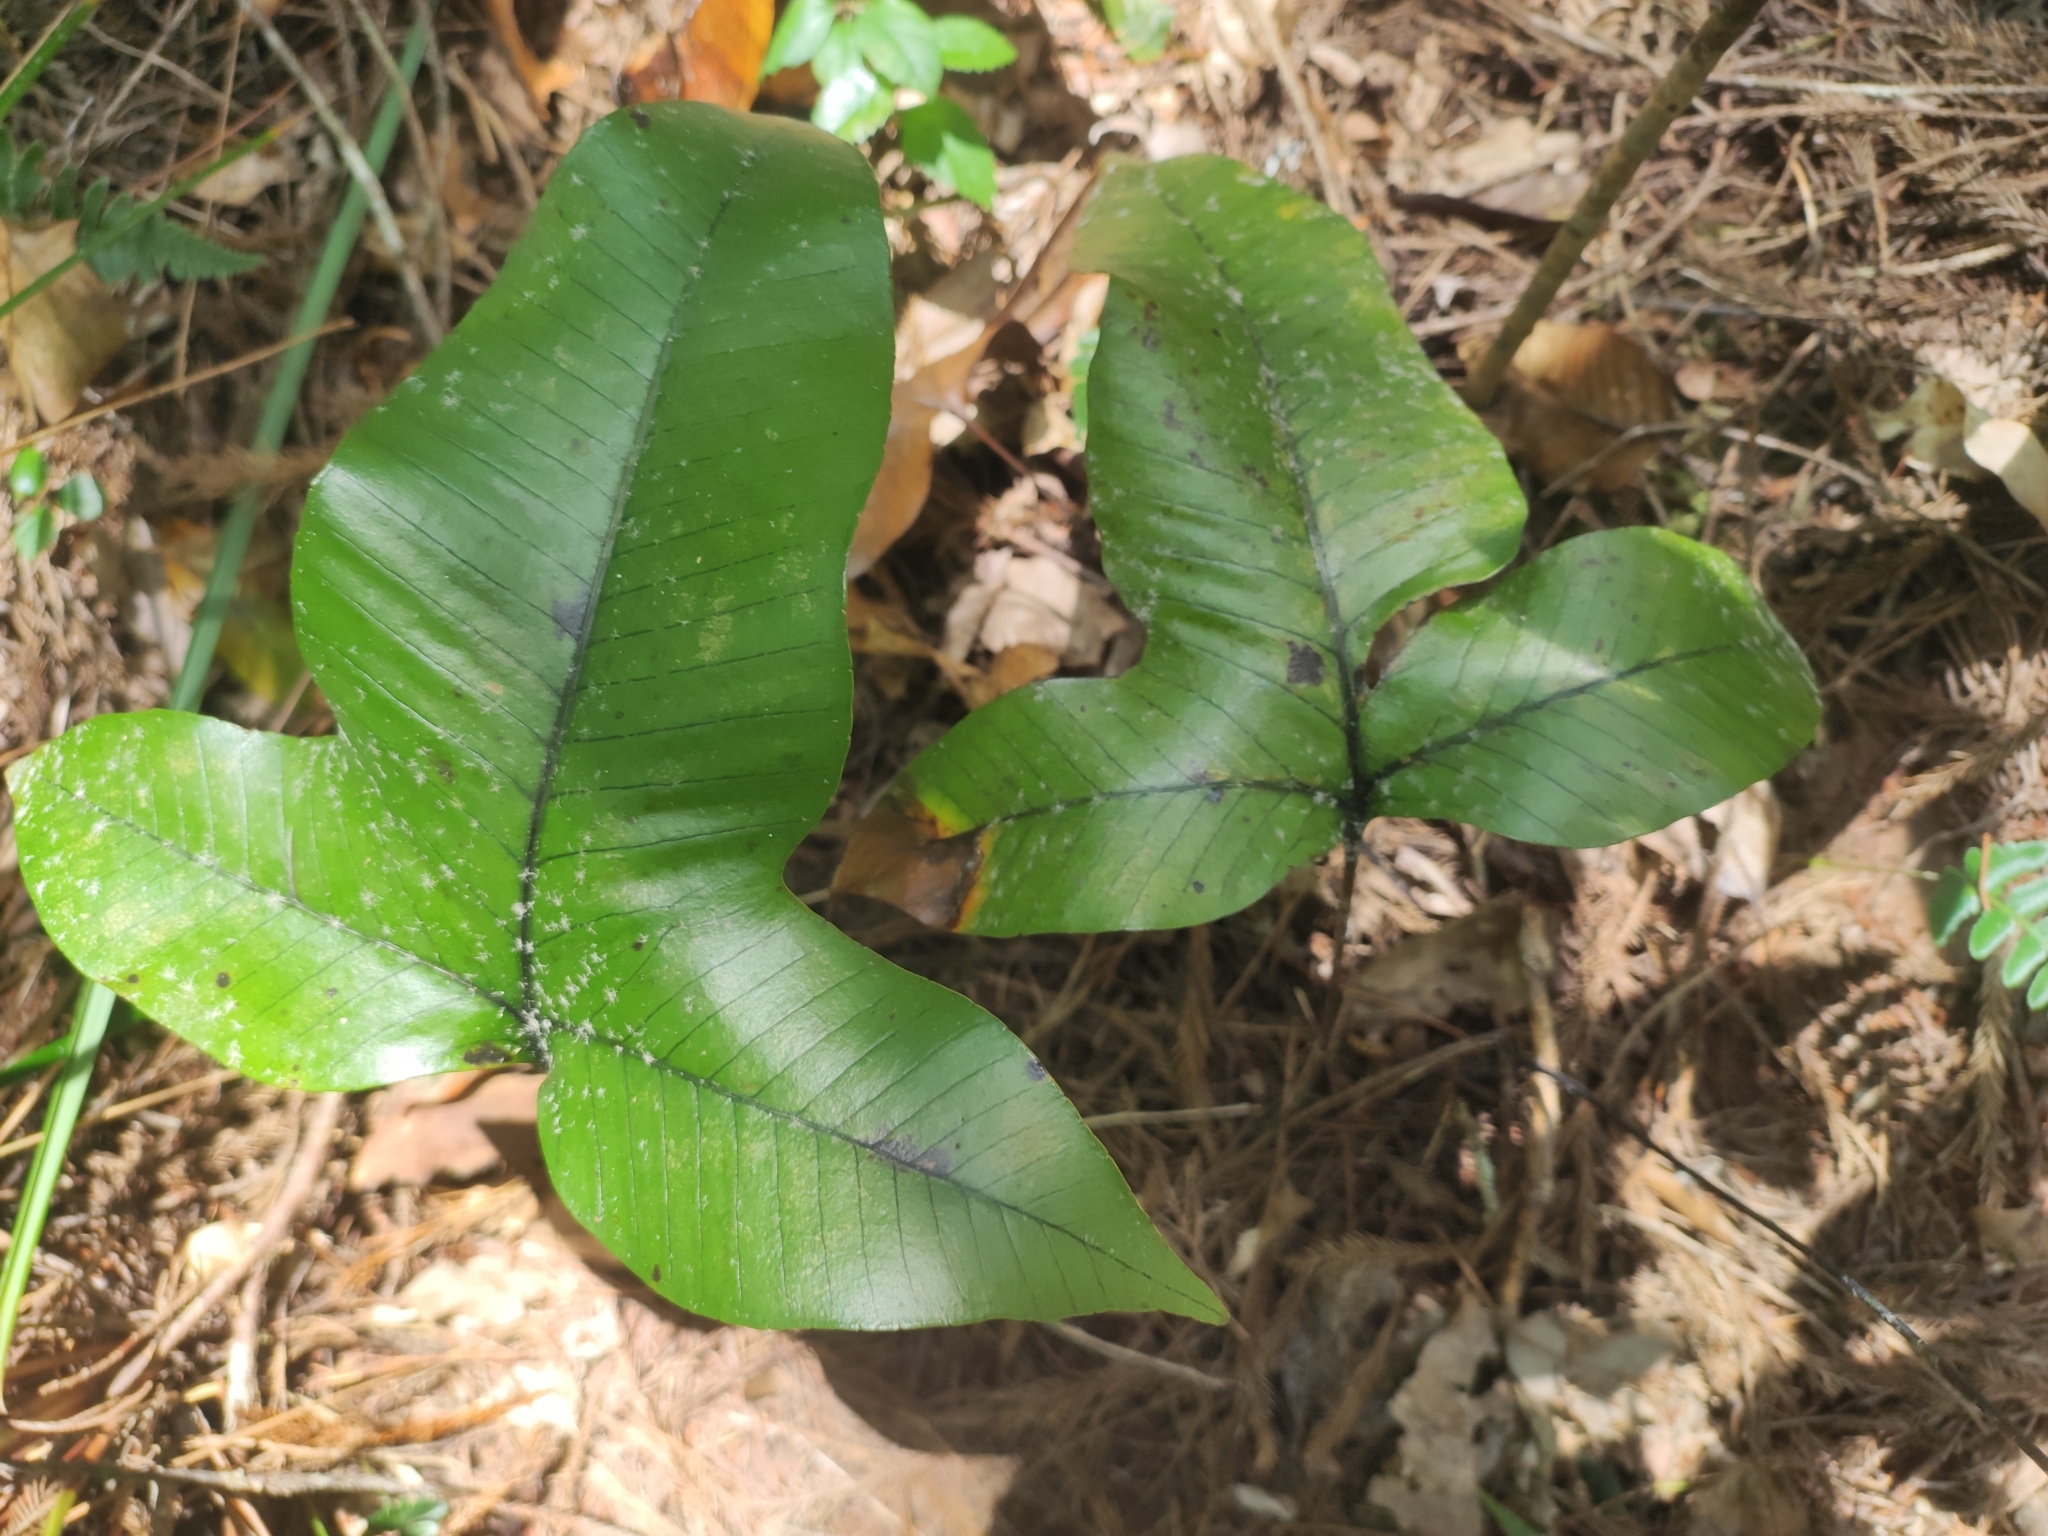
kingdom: Plantae
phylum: Tracheophyta
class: Polypodiopsida
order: Polypodiales
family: Polypodiaceae
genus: Selliguea
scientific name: Selliguea triloba
